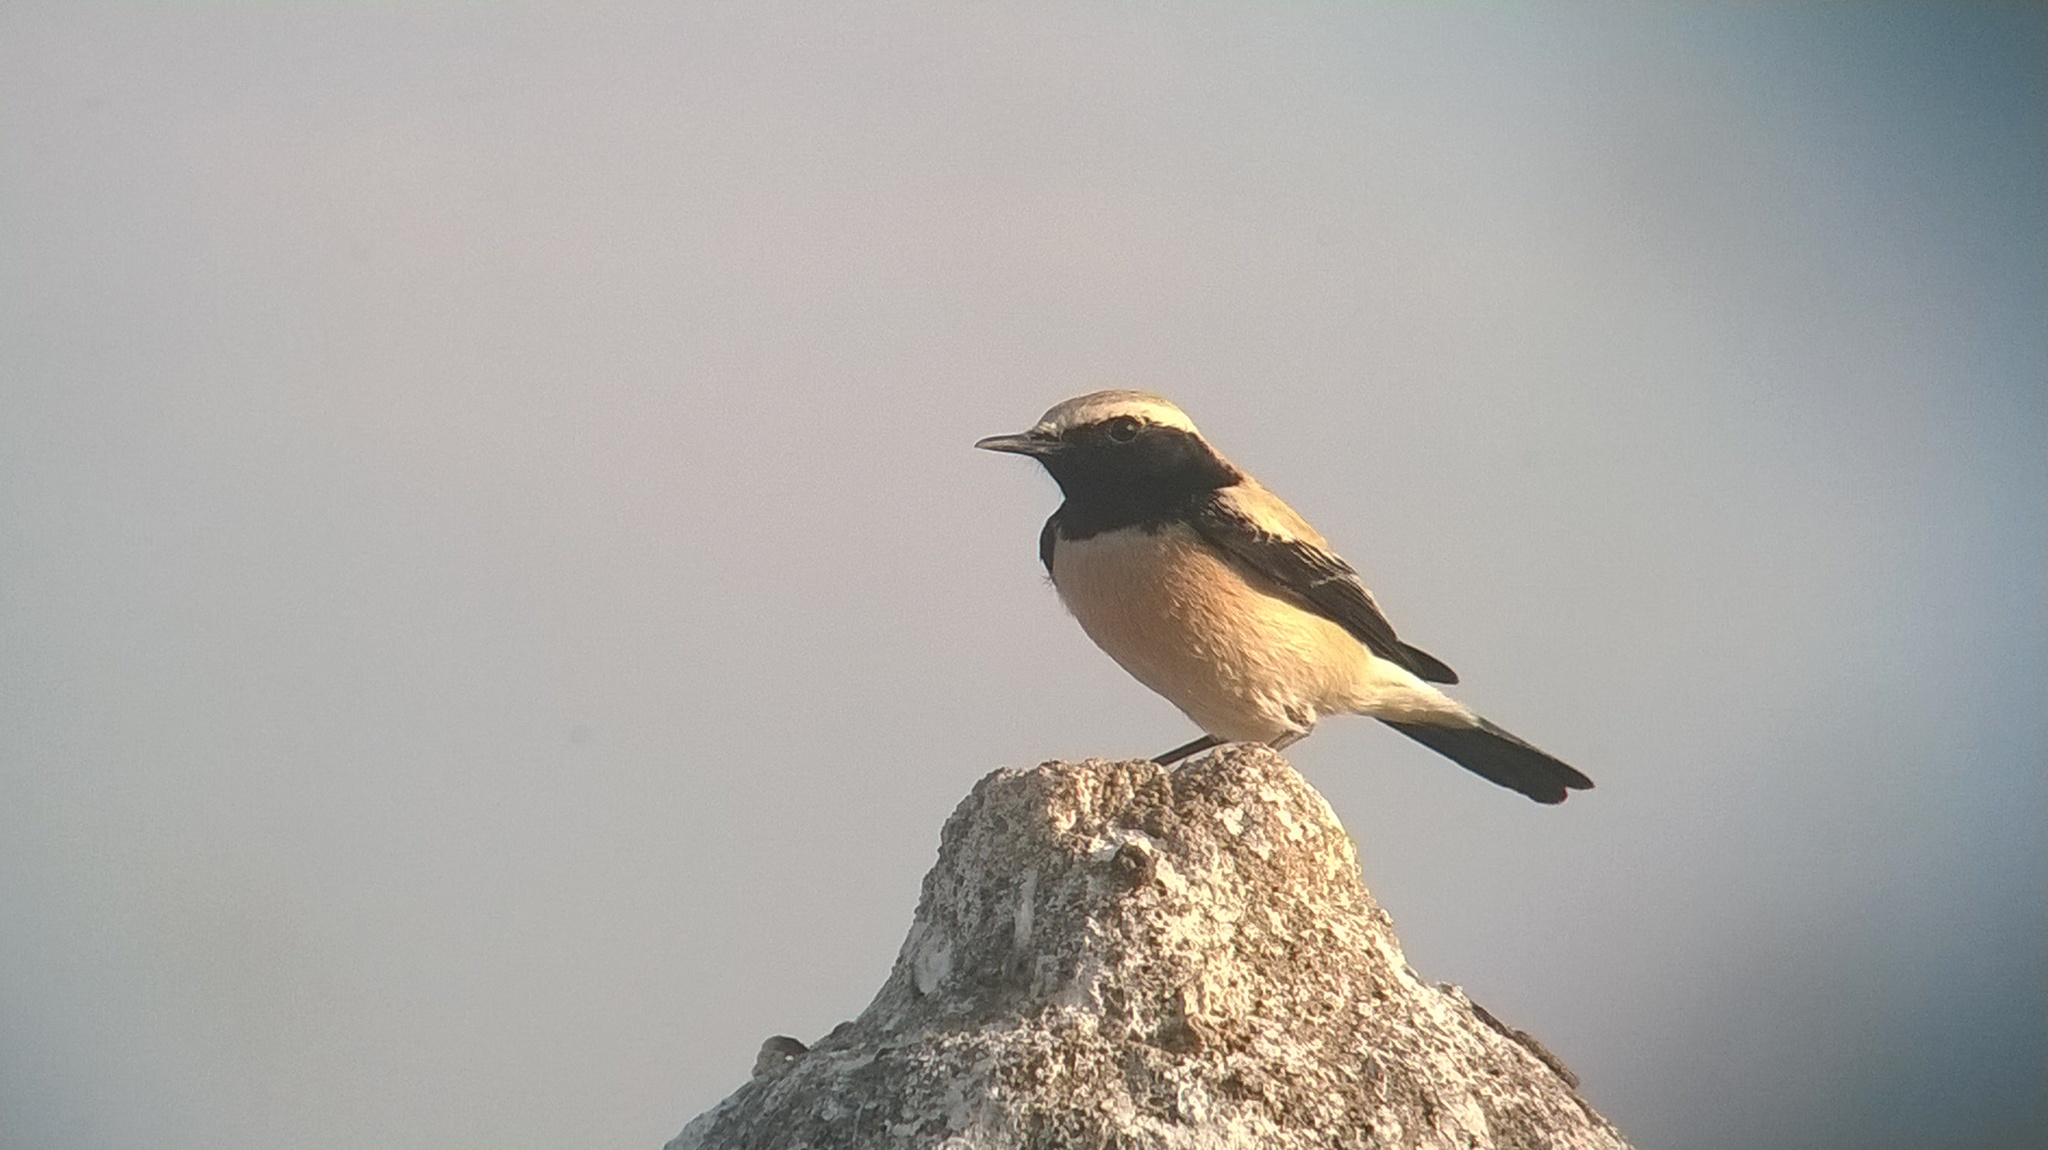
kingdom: Animalia
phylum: Chordata
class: Aves
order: Passeriformes
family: Muscicapidae
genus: Oenanthe
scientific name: Oenanthe deserti
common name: Desert wheatear
